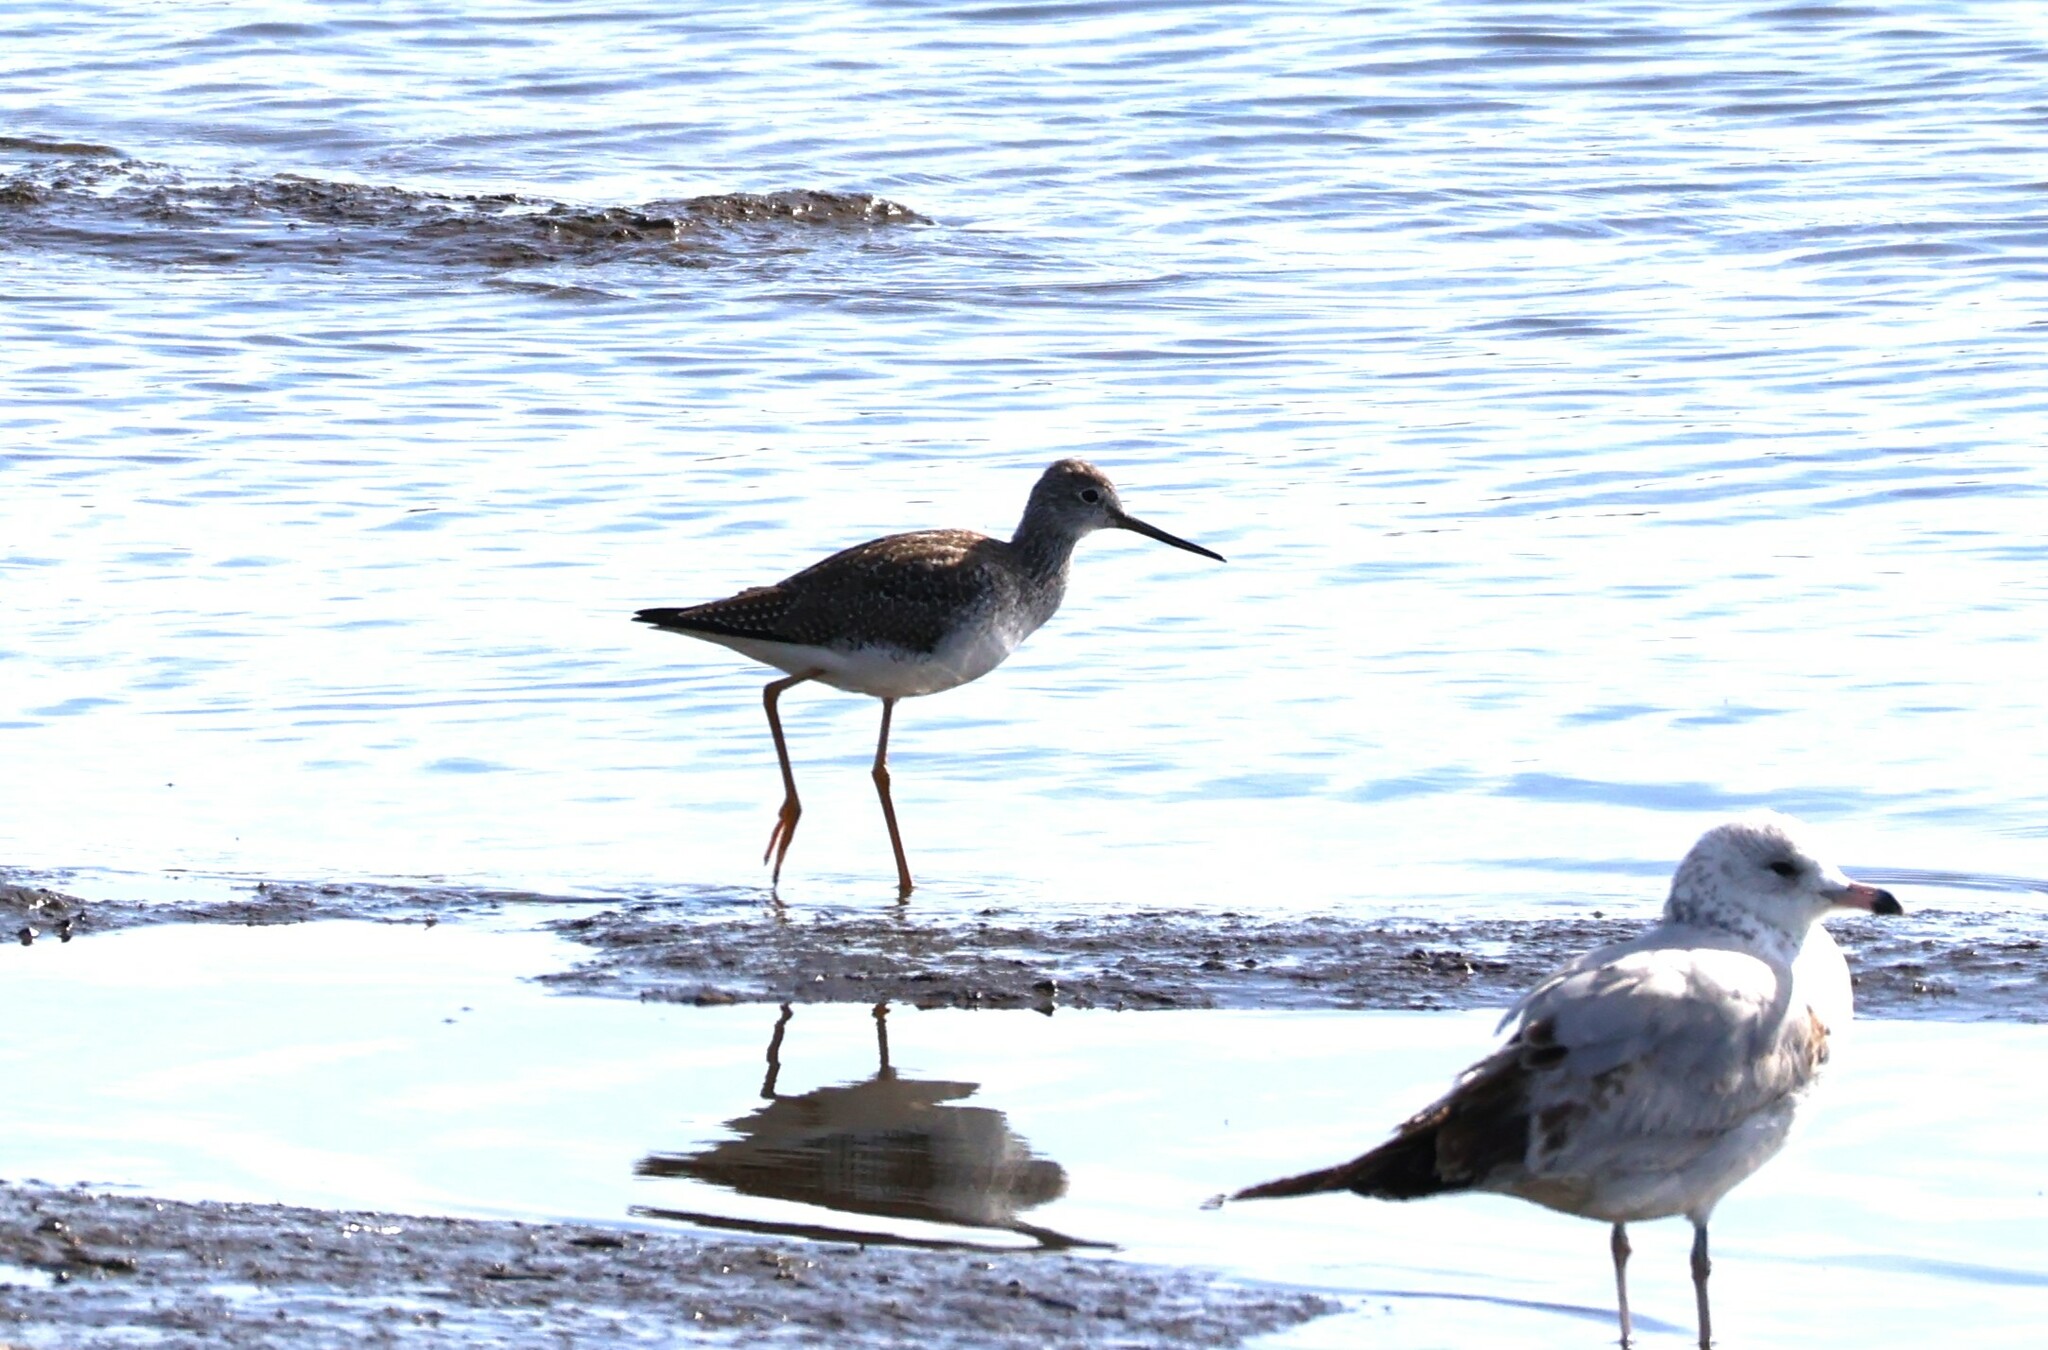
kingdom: Animalia
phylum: Chordata
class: Aves
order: Charadriiformes
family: Scolopacidae
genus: Tringa
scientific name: Tringa melanoleuca
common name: Greater yellowlegs
